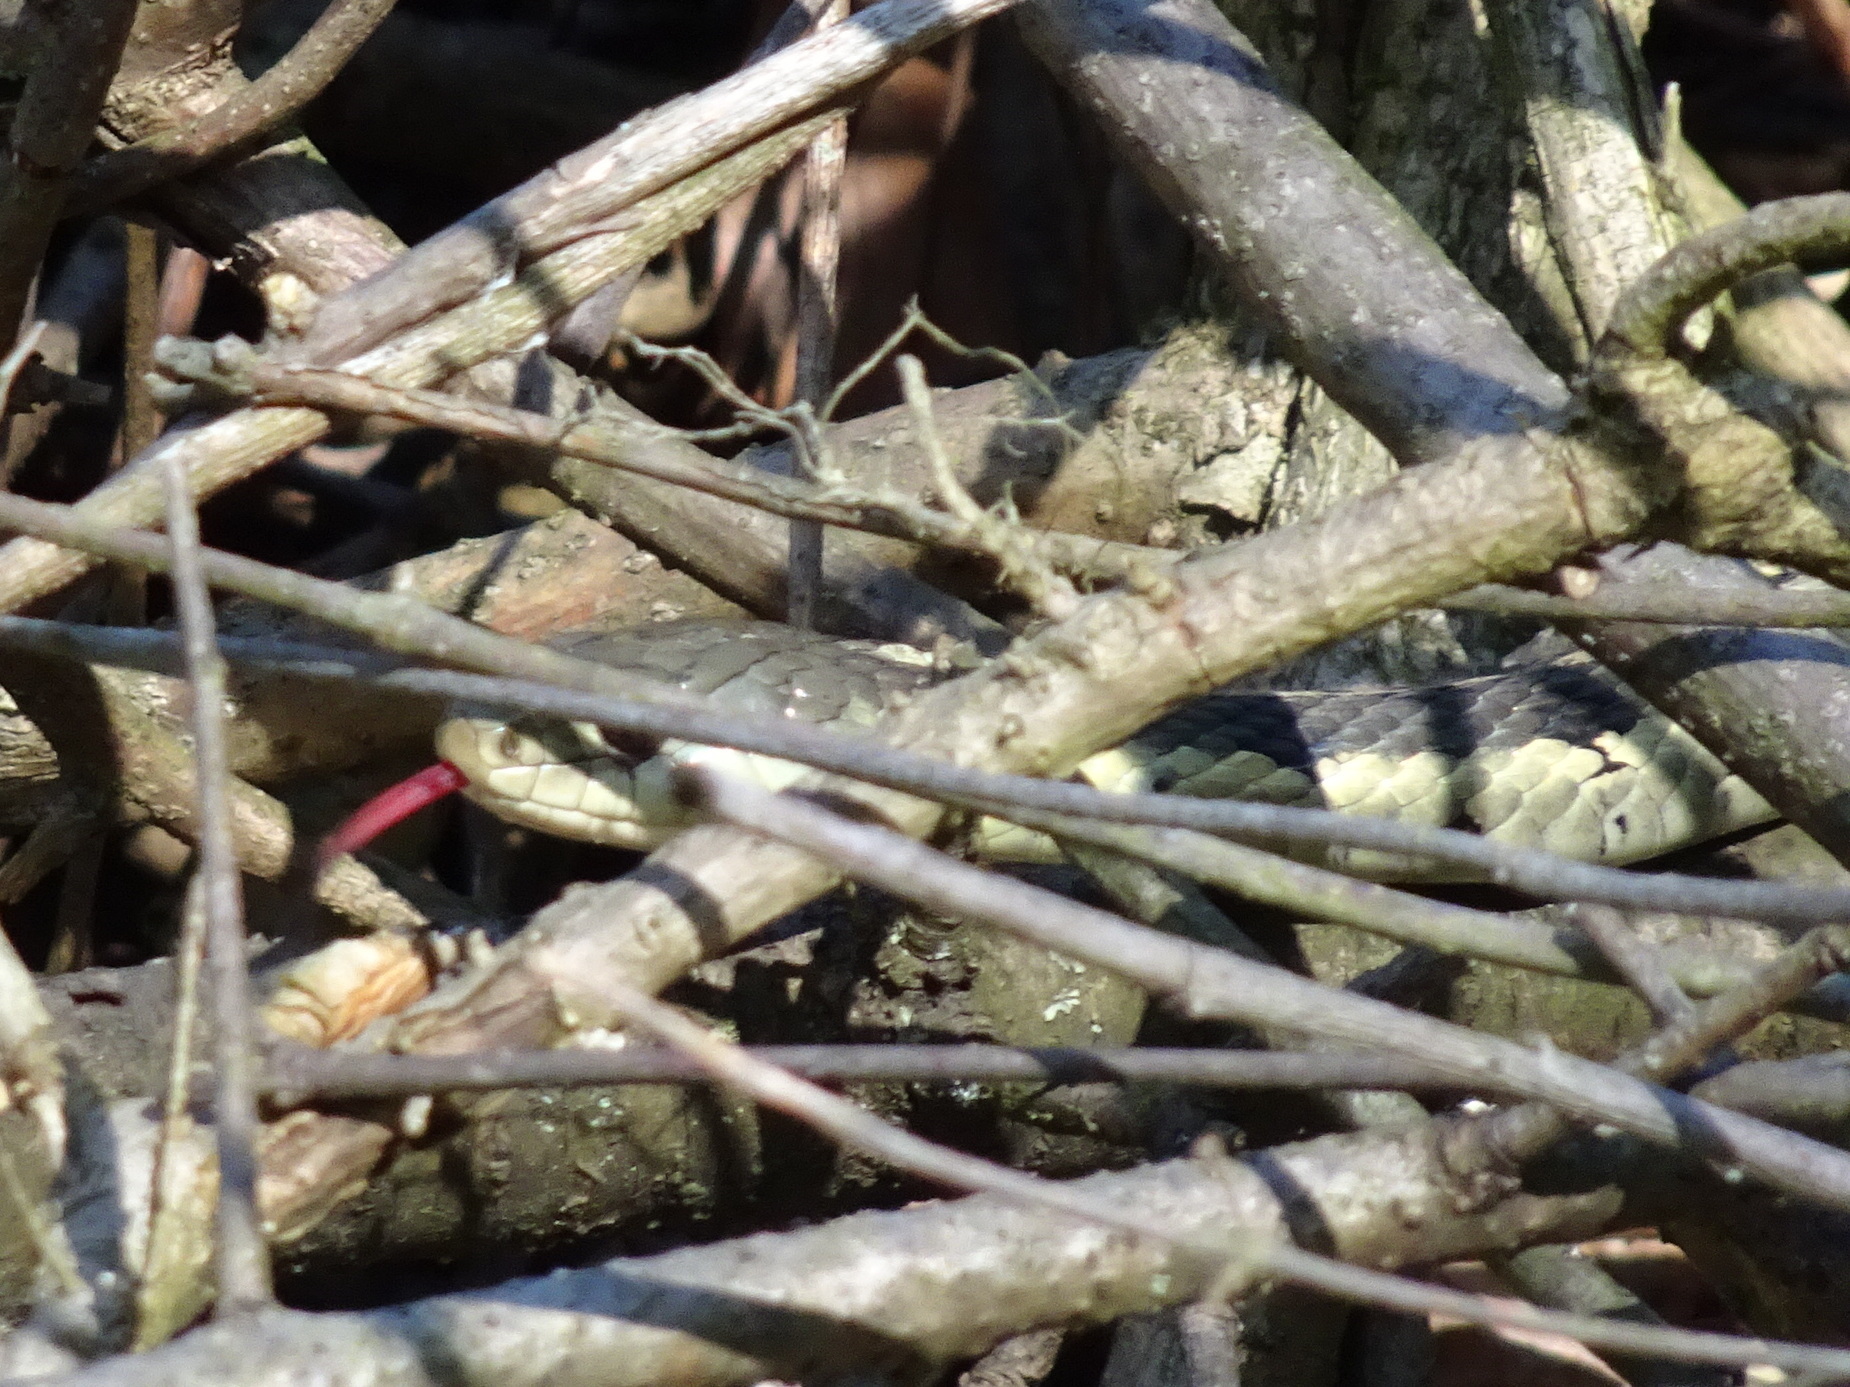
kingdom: Animalia
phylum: Chordata
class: Squamata
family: Colubridae
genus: Thamnophis
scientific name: Thamnophis sirtalis
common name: Common garter snake
